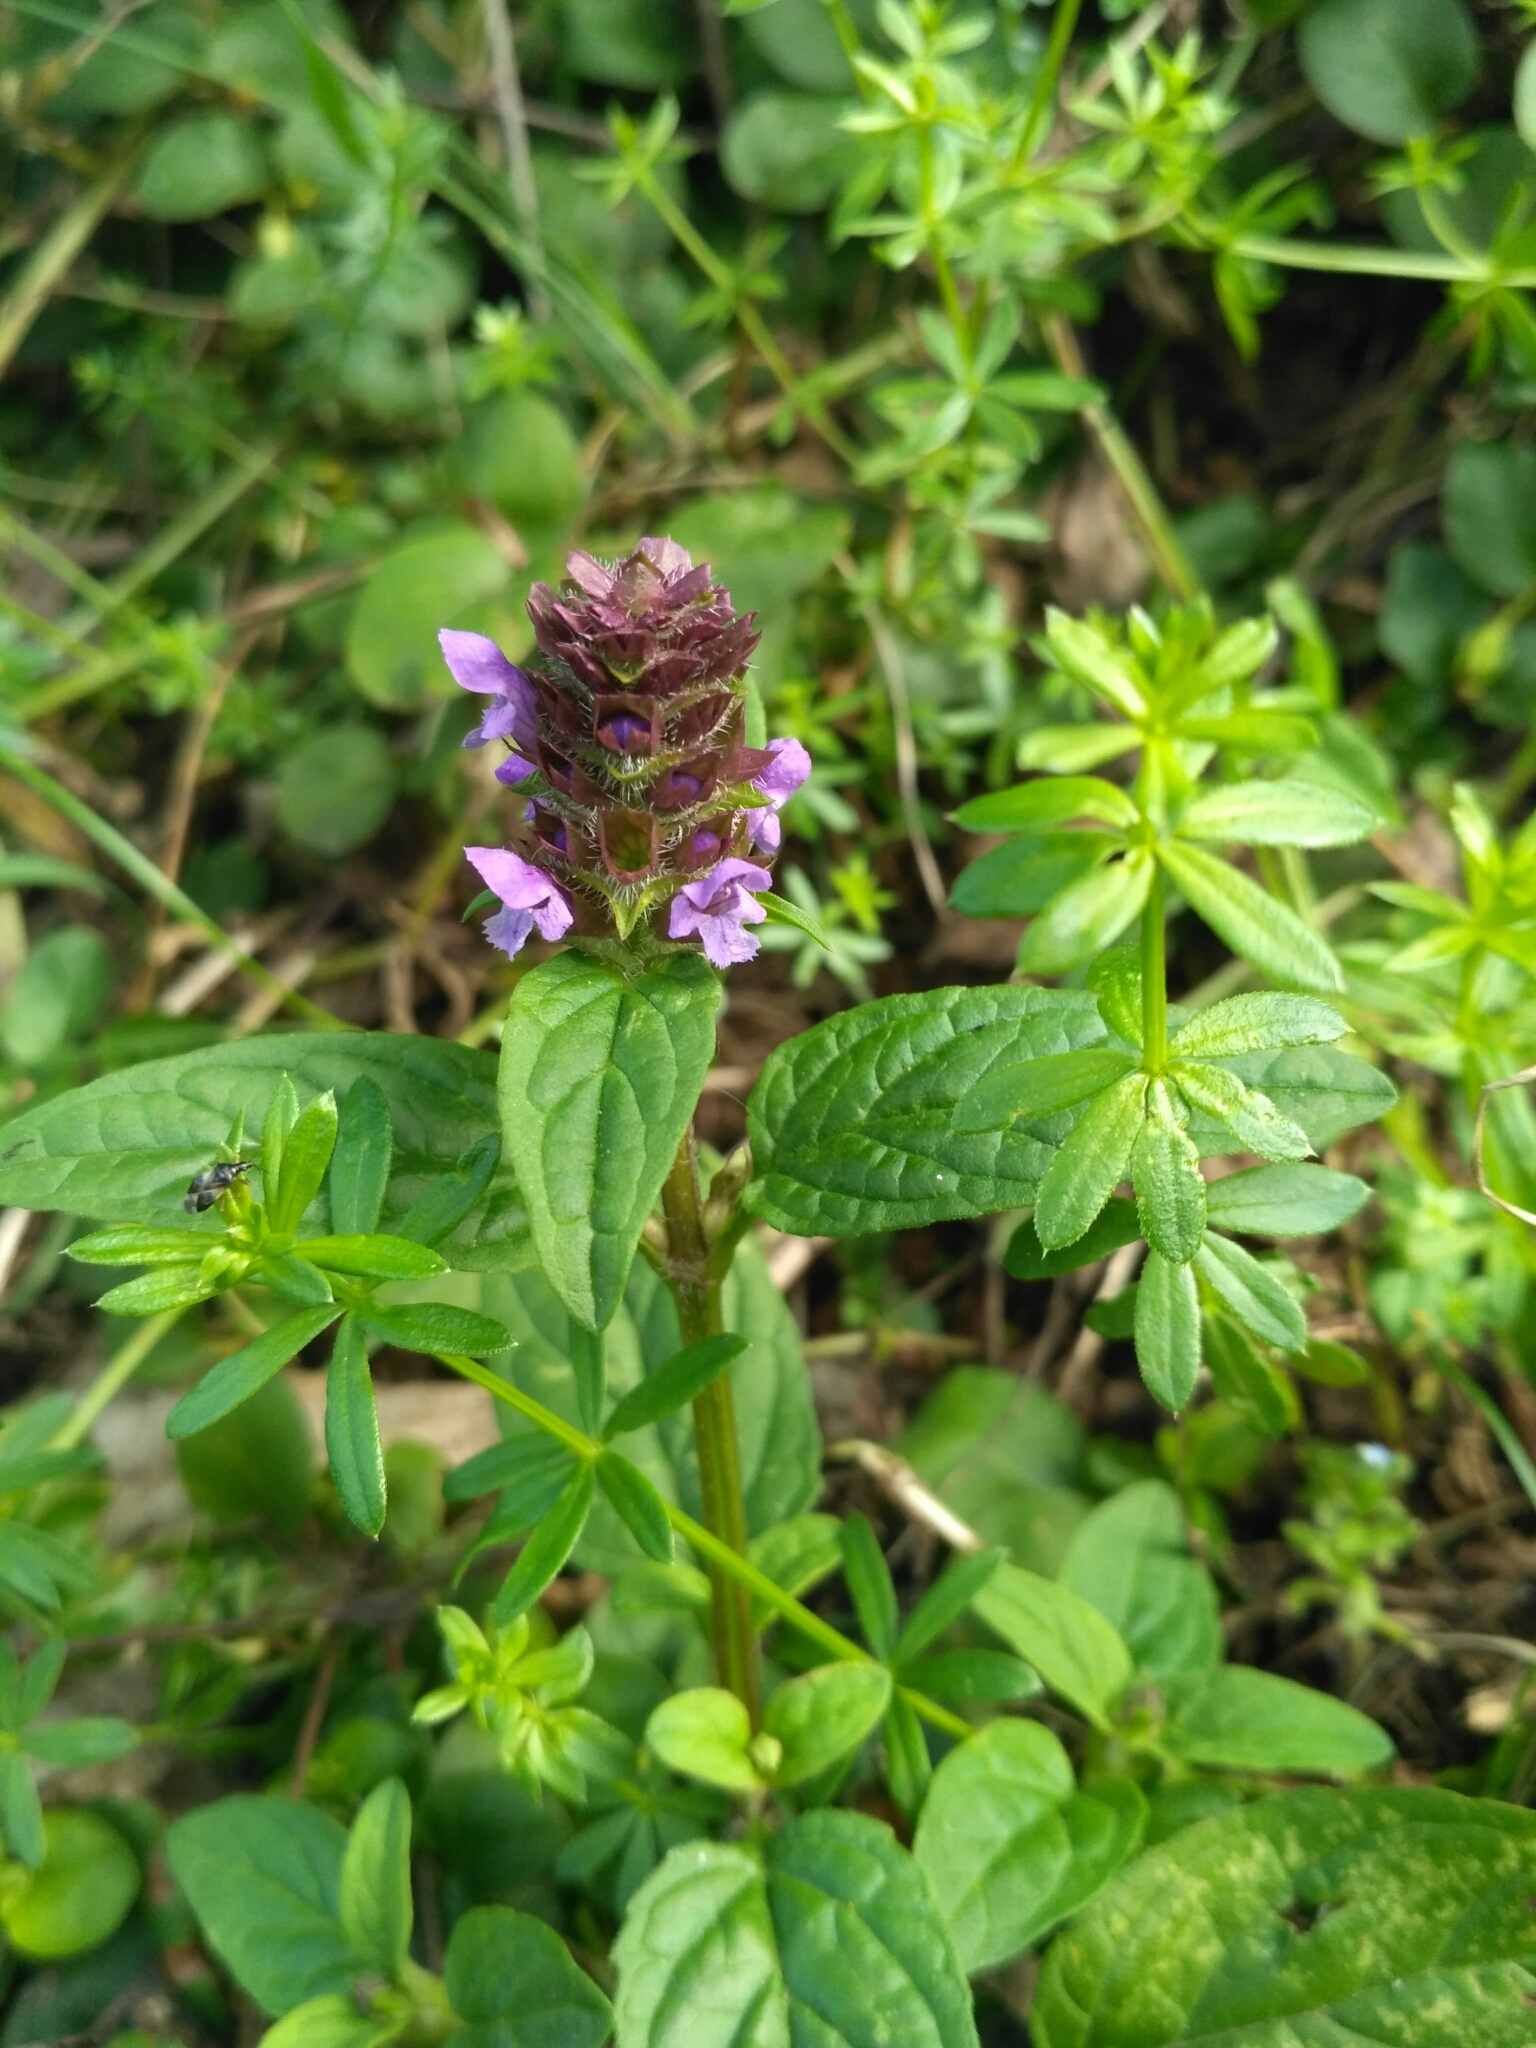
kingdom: Plantae
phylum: Tracheophyta
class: Magnoliopsida
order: Lamiales
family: Lamiaceae
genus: Prunella
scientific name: Prunella vulgaris
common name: Heal-all
